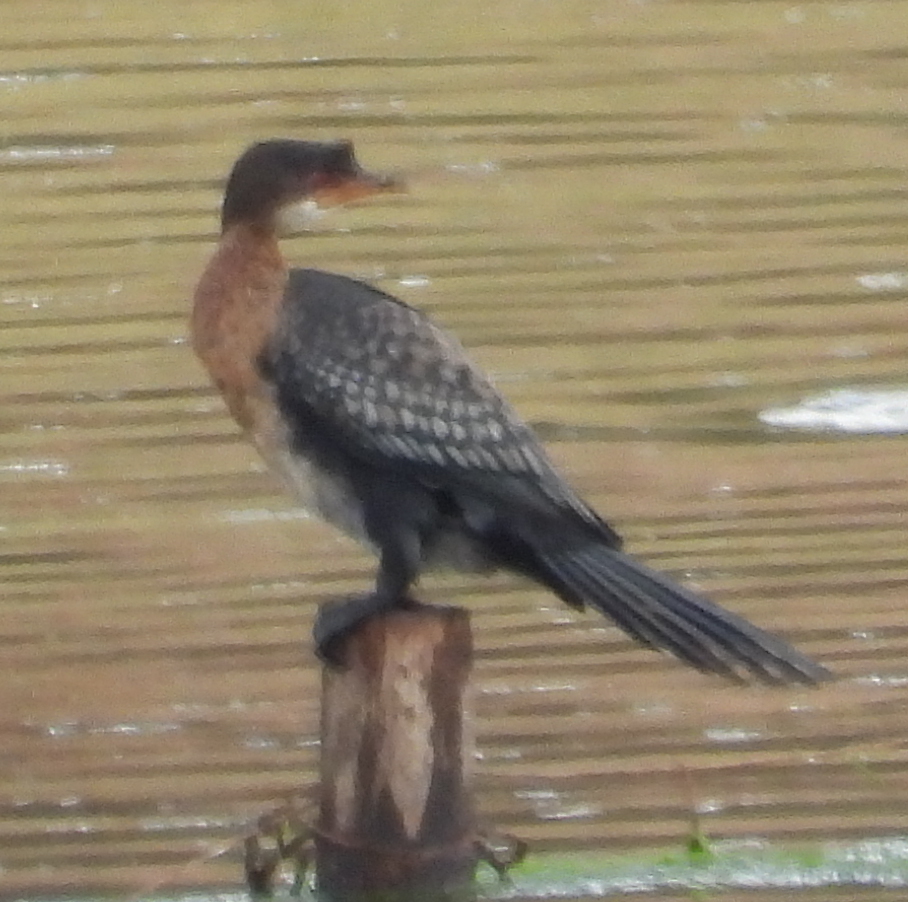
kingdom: Animalia
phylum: Chordata
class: Aves
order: Suliformes
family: Phalacrocoracidae
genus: Microcarbo
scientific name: Microcarbo africanus
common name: Long-tailed cormorant
